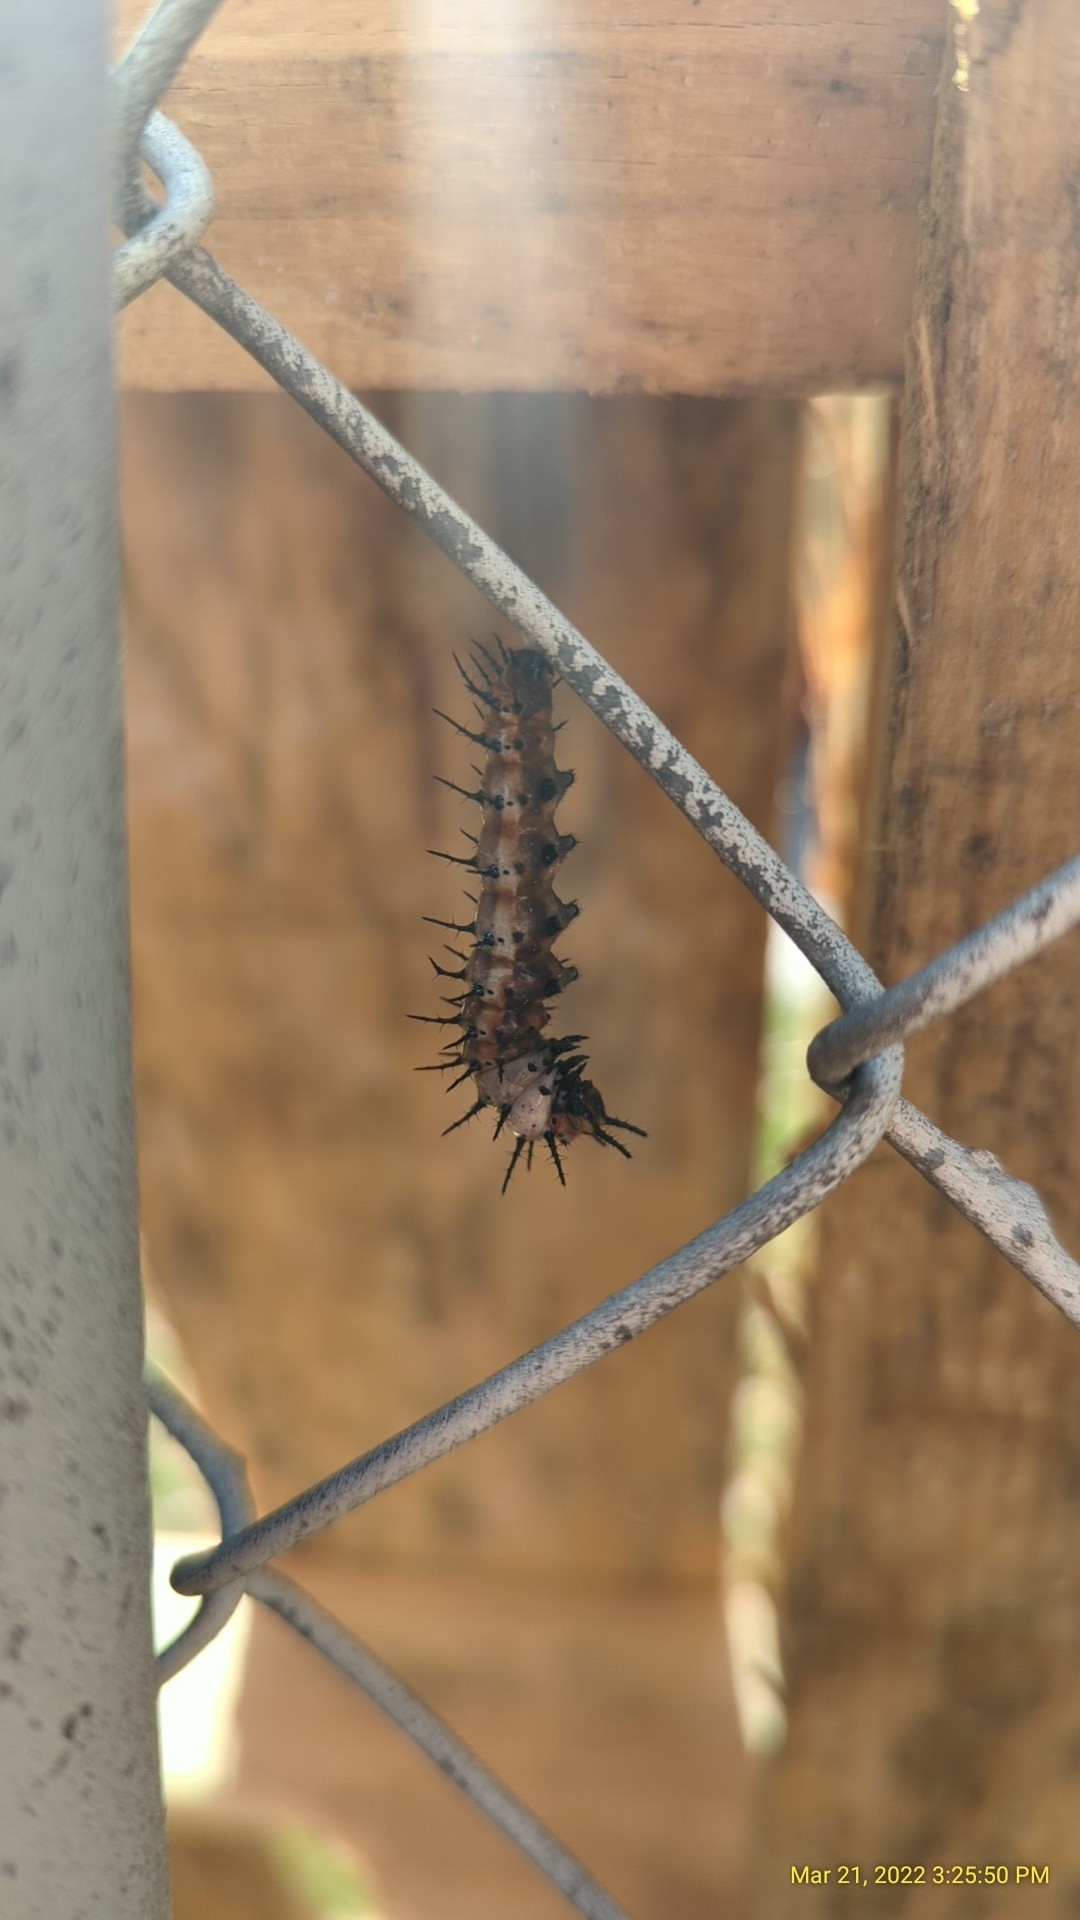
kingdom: Animalia
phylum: Arthropoda
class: Insecta
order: Lepidoptera
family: Nymphalidae
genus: Dione
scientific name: Dione vanillae
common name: Gulf fritillary
